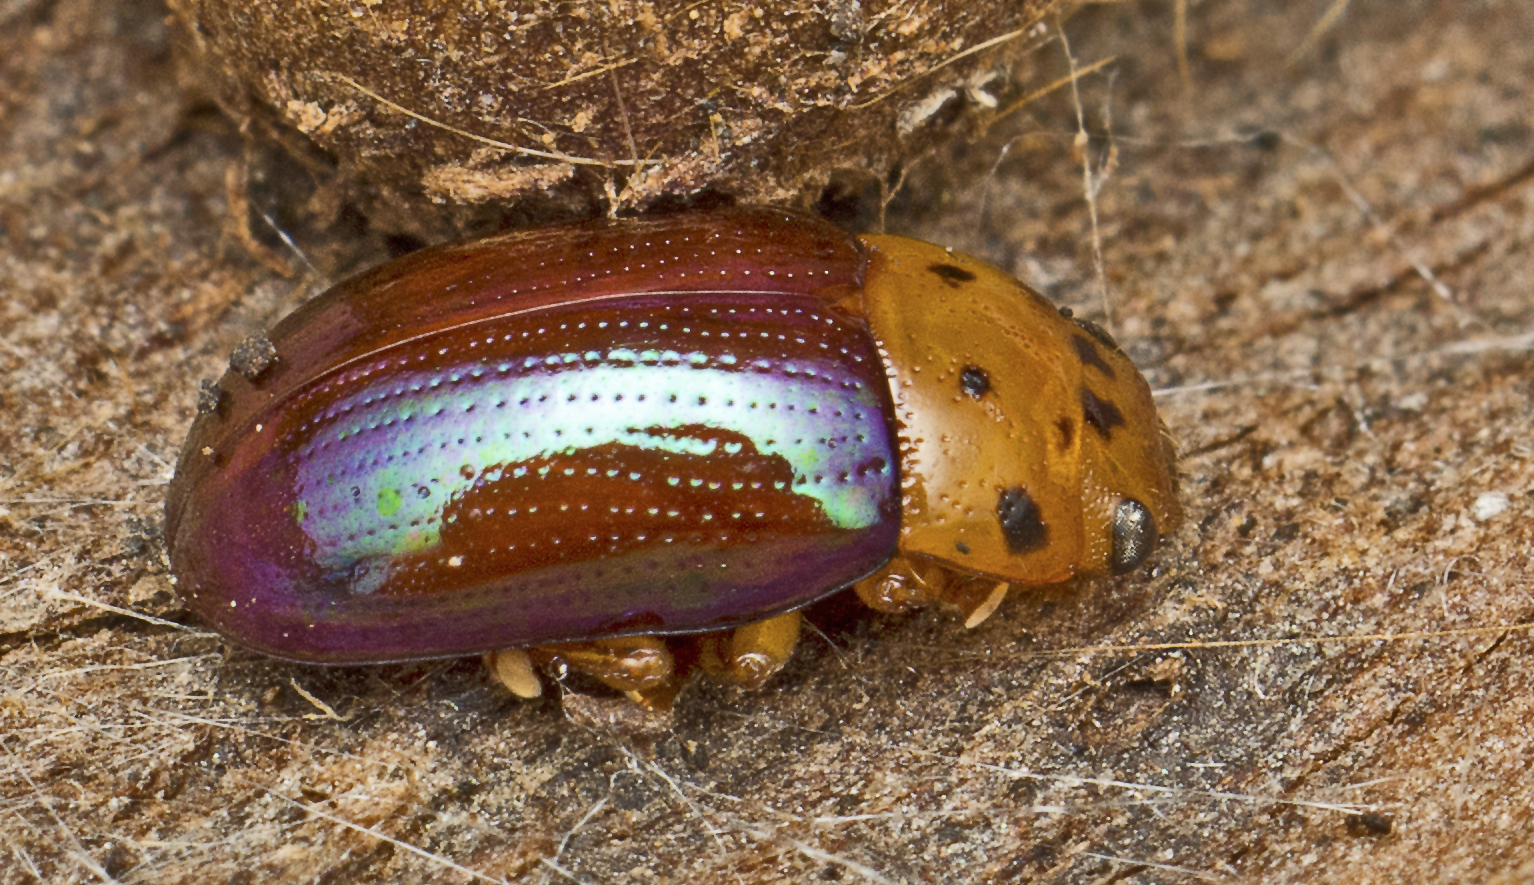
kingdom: Animalia
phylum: Arthropoda
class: Insecta
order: Coleoptera
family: Chrysomelidae
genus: Platymela
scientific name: Platymela
